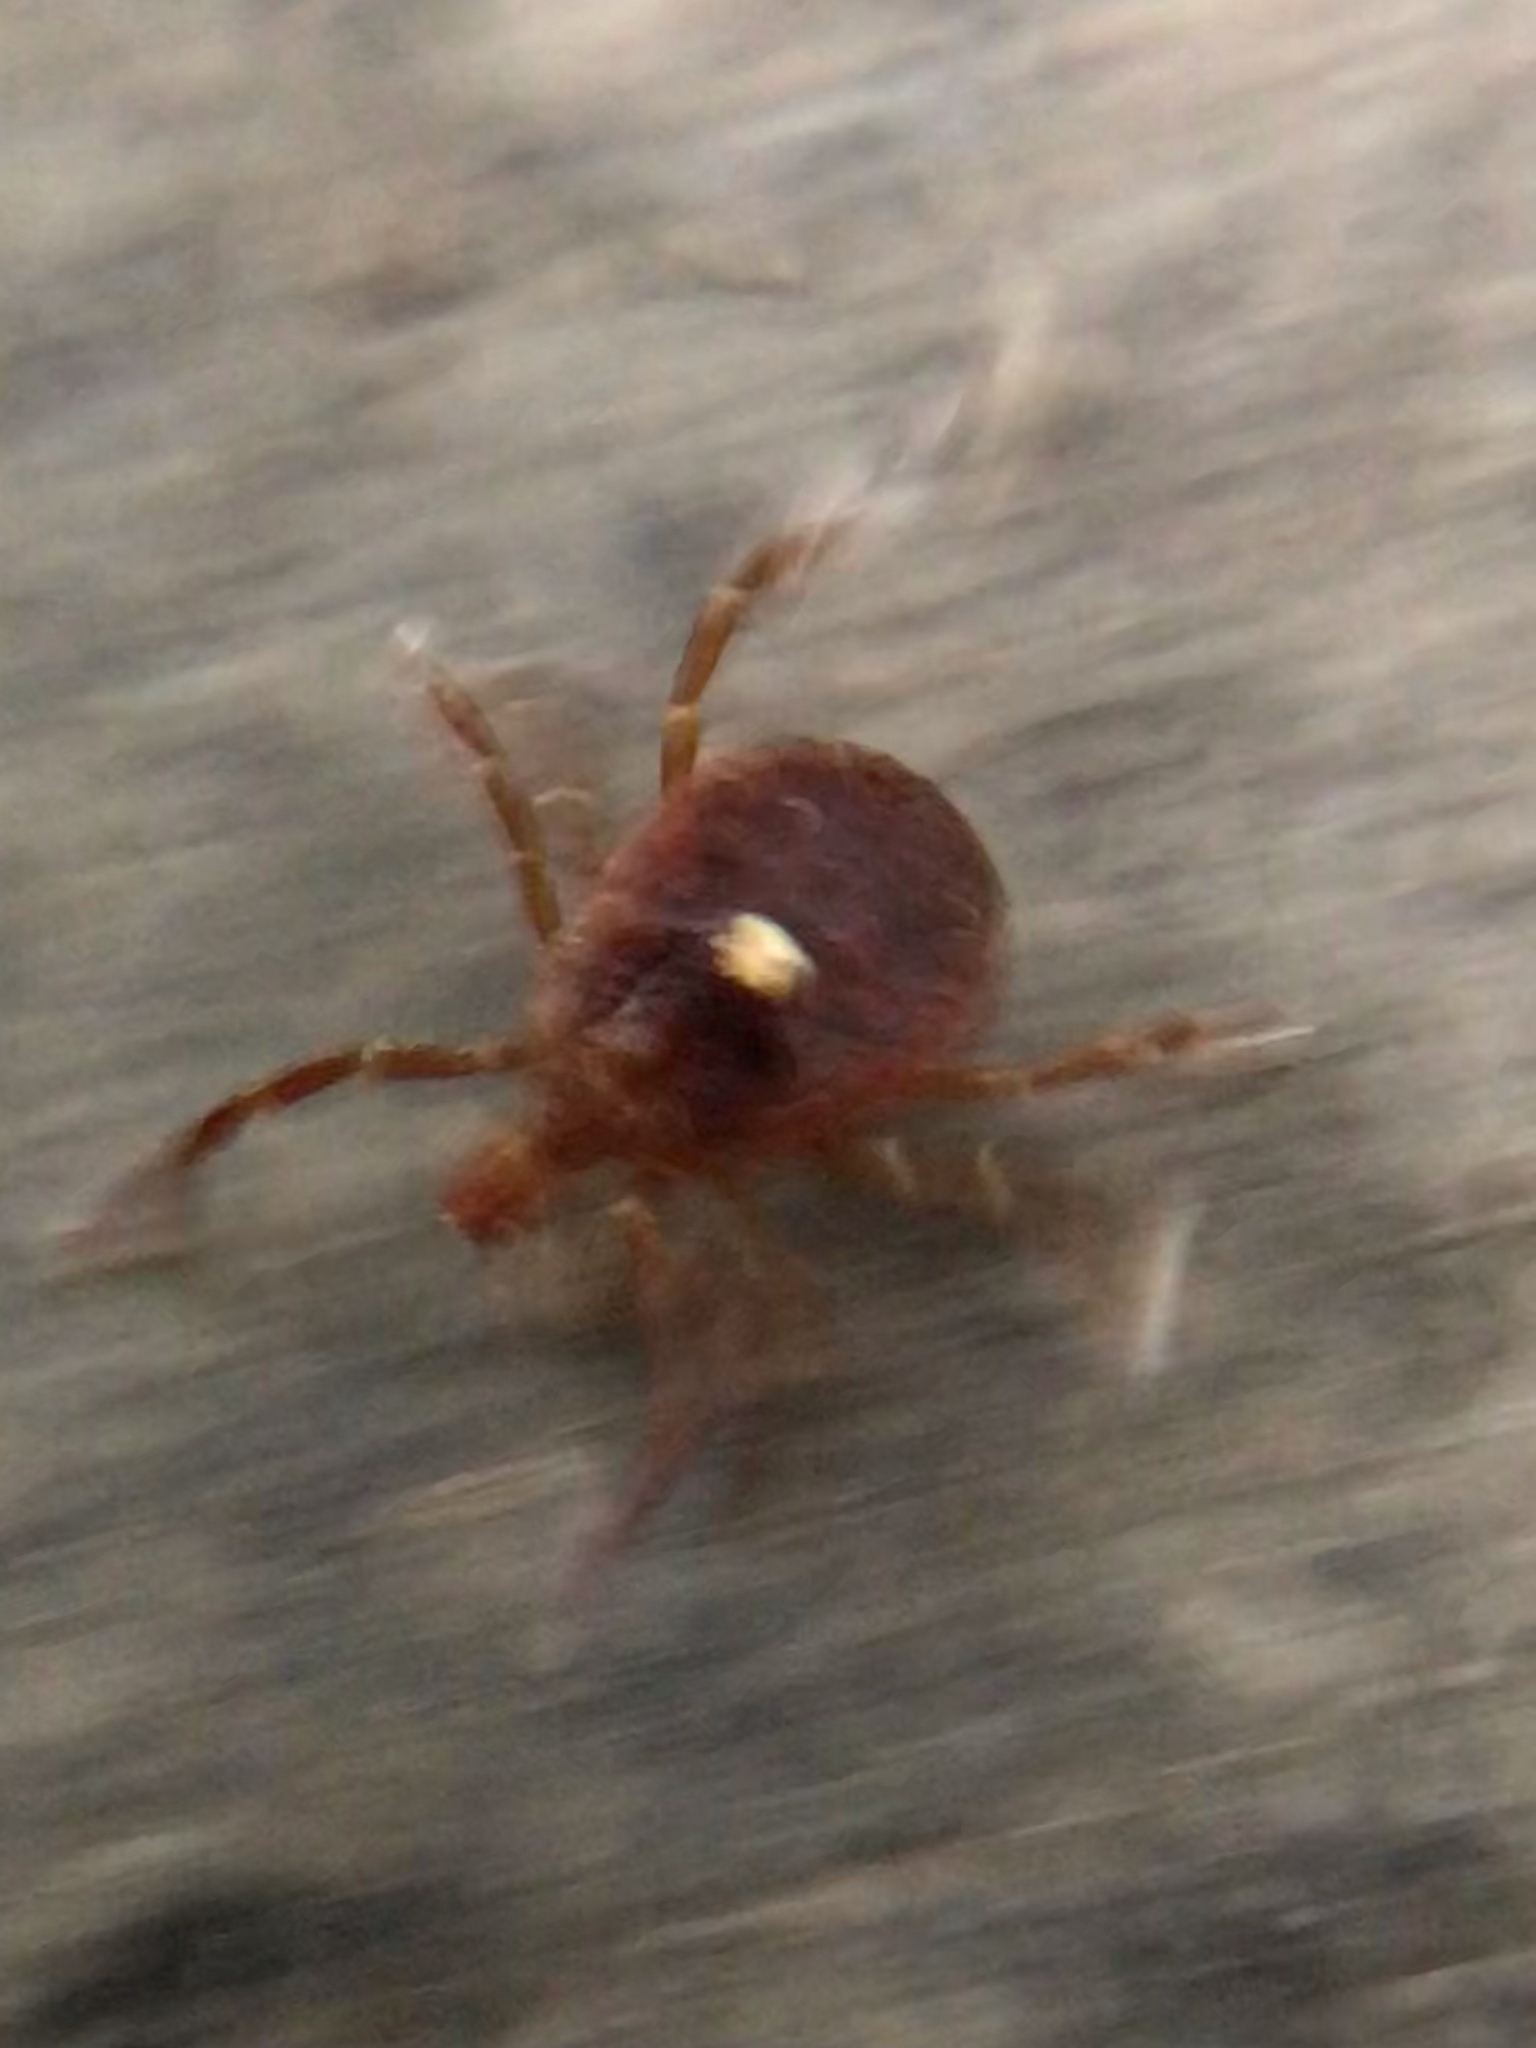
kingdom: Animalia
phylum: Arthropoda
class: Arachnida
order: Ixodida
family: Ixodidae
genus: Amblyomma
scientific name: Amblyomma americanum
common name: Lone star tick
